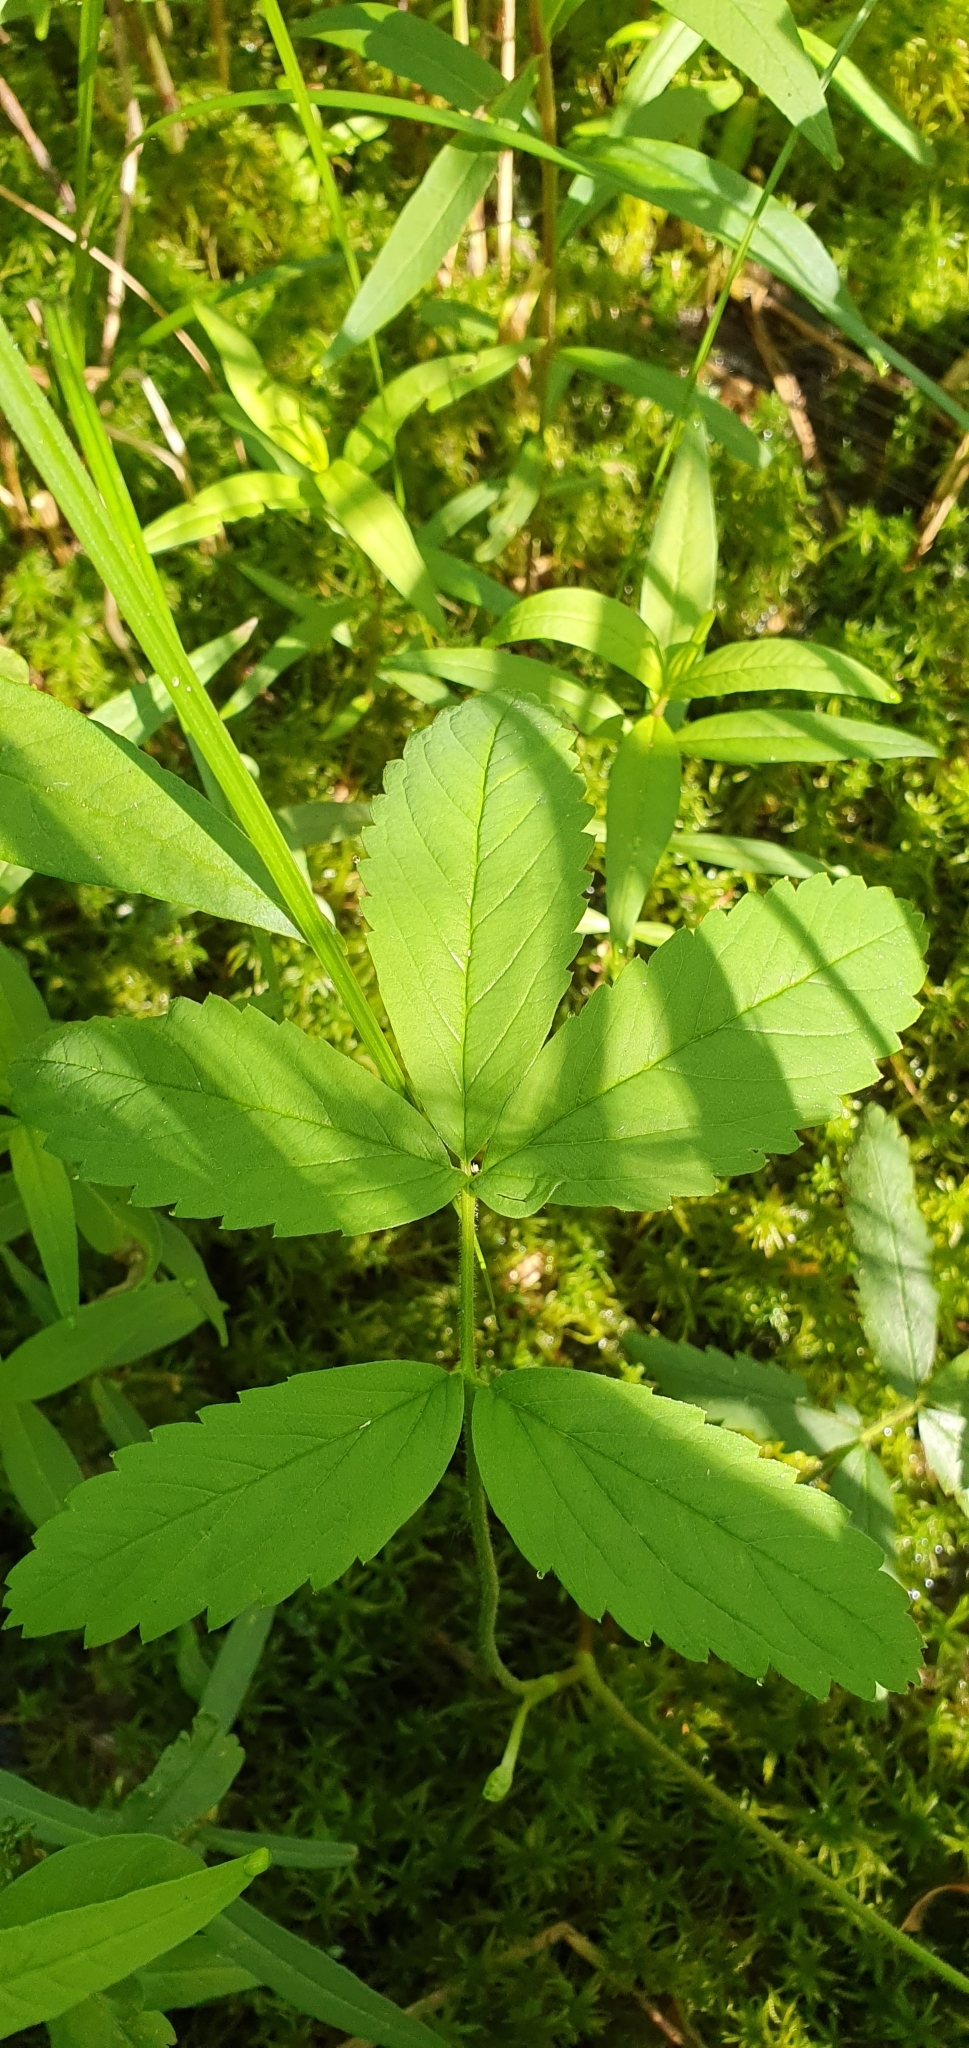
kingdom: Plantae
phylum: Tracheophyta
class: Magnoliopsida
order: Rosales
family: Rosaceae
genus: Comarum
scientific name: Comarum palustre
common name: Marsh cinquefoil
